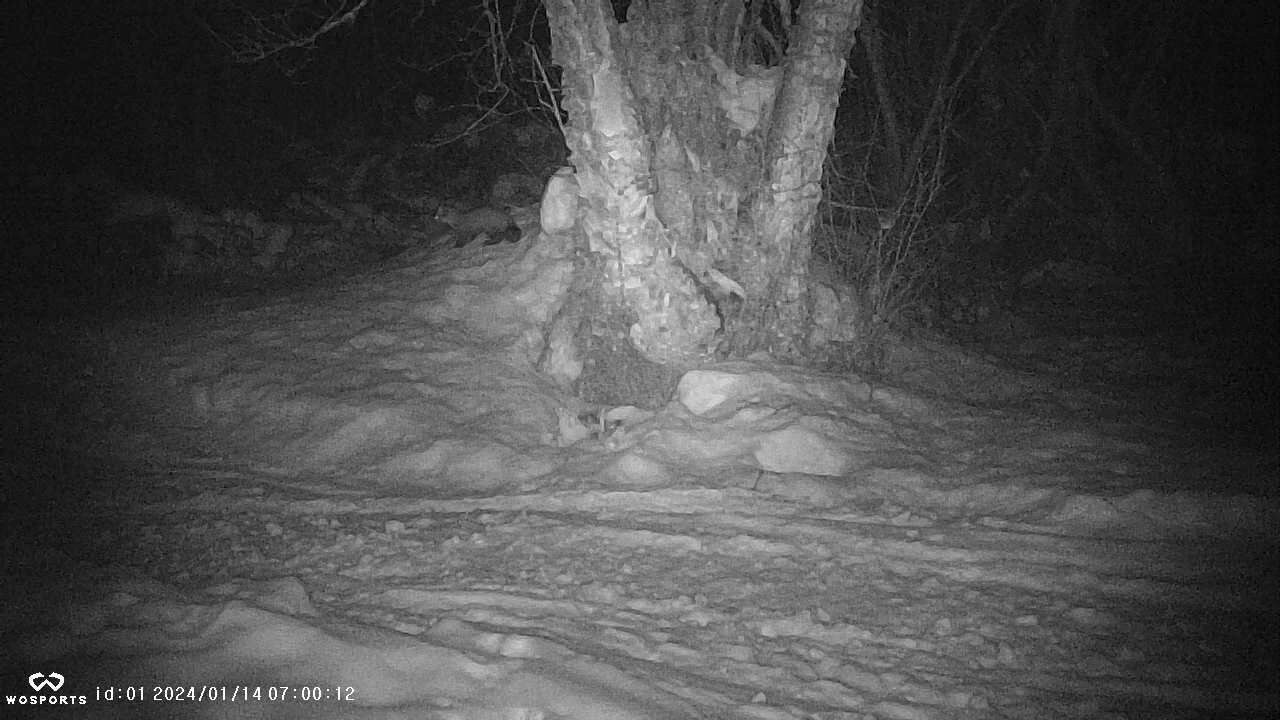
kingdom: Animalia
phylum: Chordata
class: Mammalia
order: Carnivora
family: Mustelidae
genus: Martes
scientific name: Martes americana
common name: American marten
